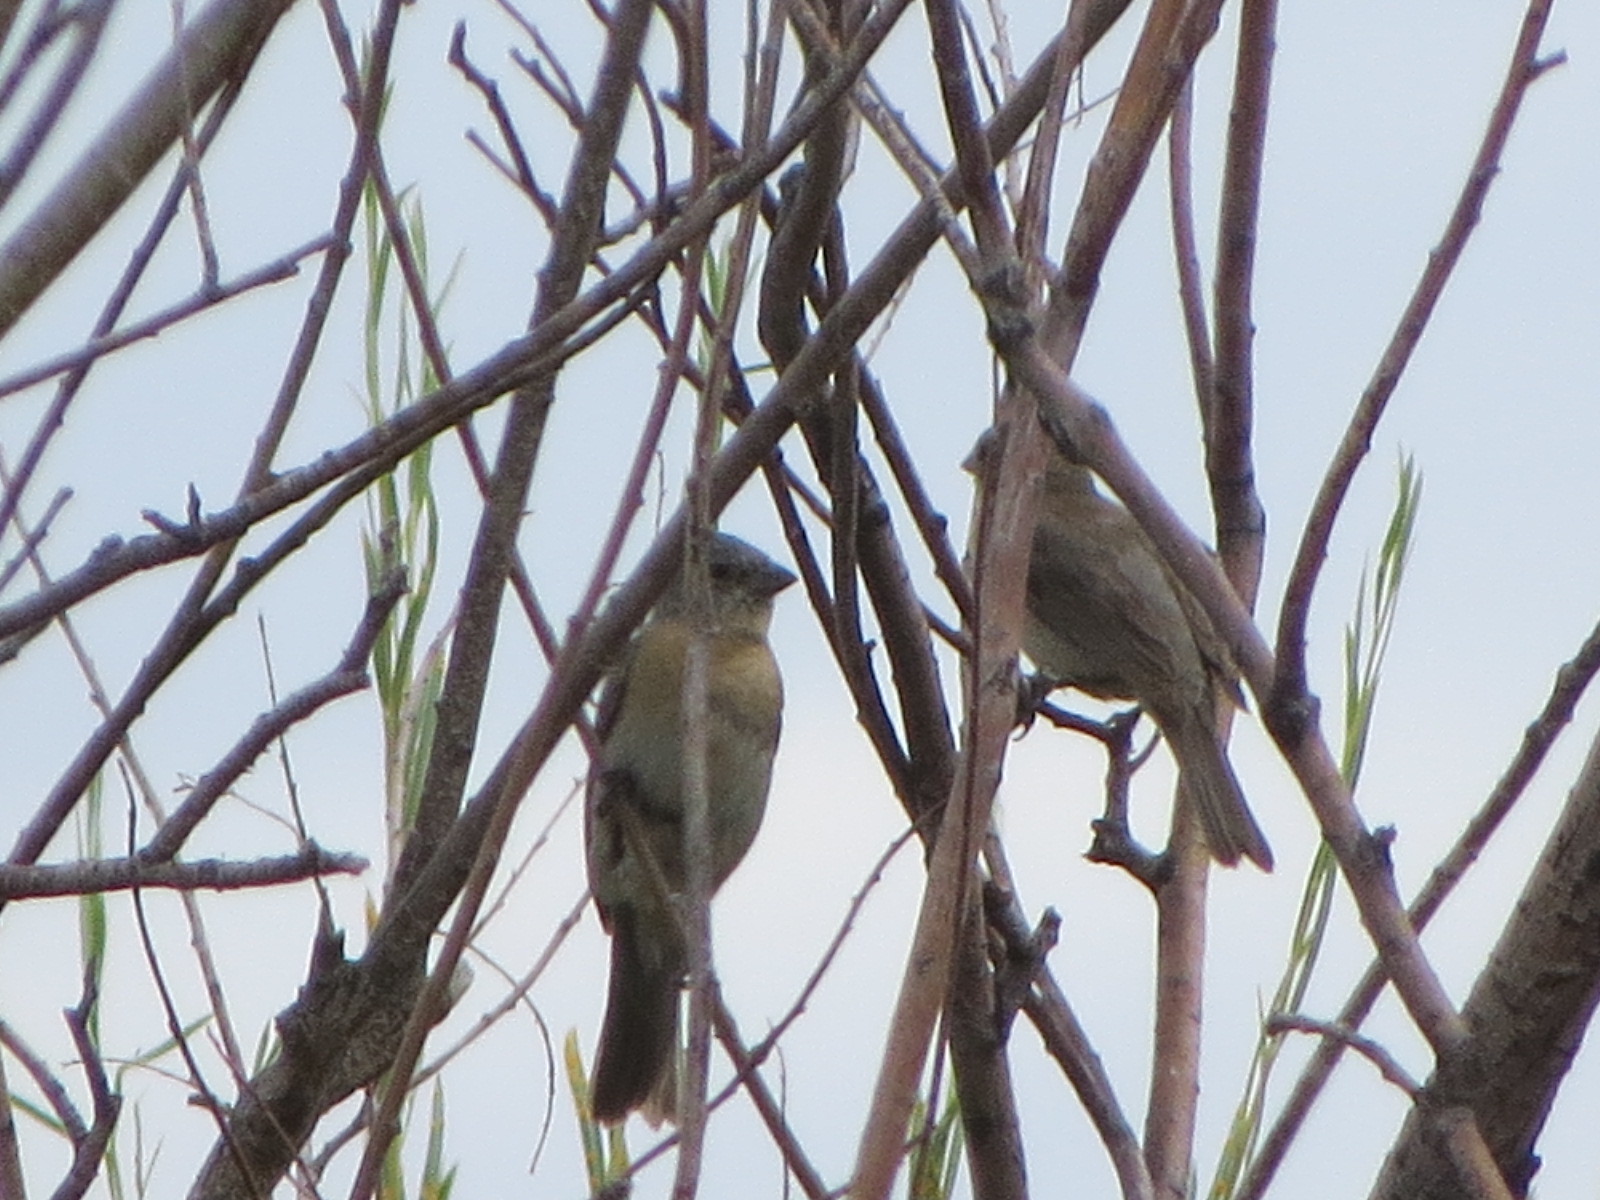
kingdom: Animalia
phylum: Chordata
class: Aves
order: Passeriformes
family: Cardinalidae
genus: Passerina
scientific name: Passerina amoena
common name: Lazuli bunting
